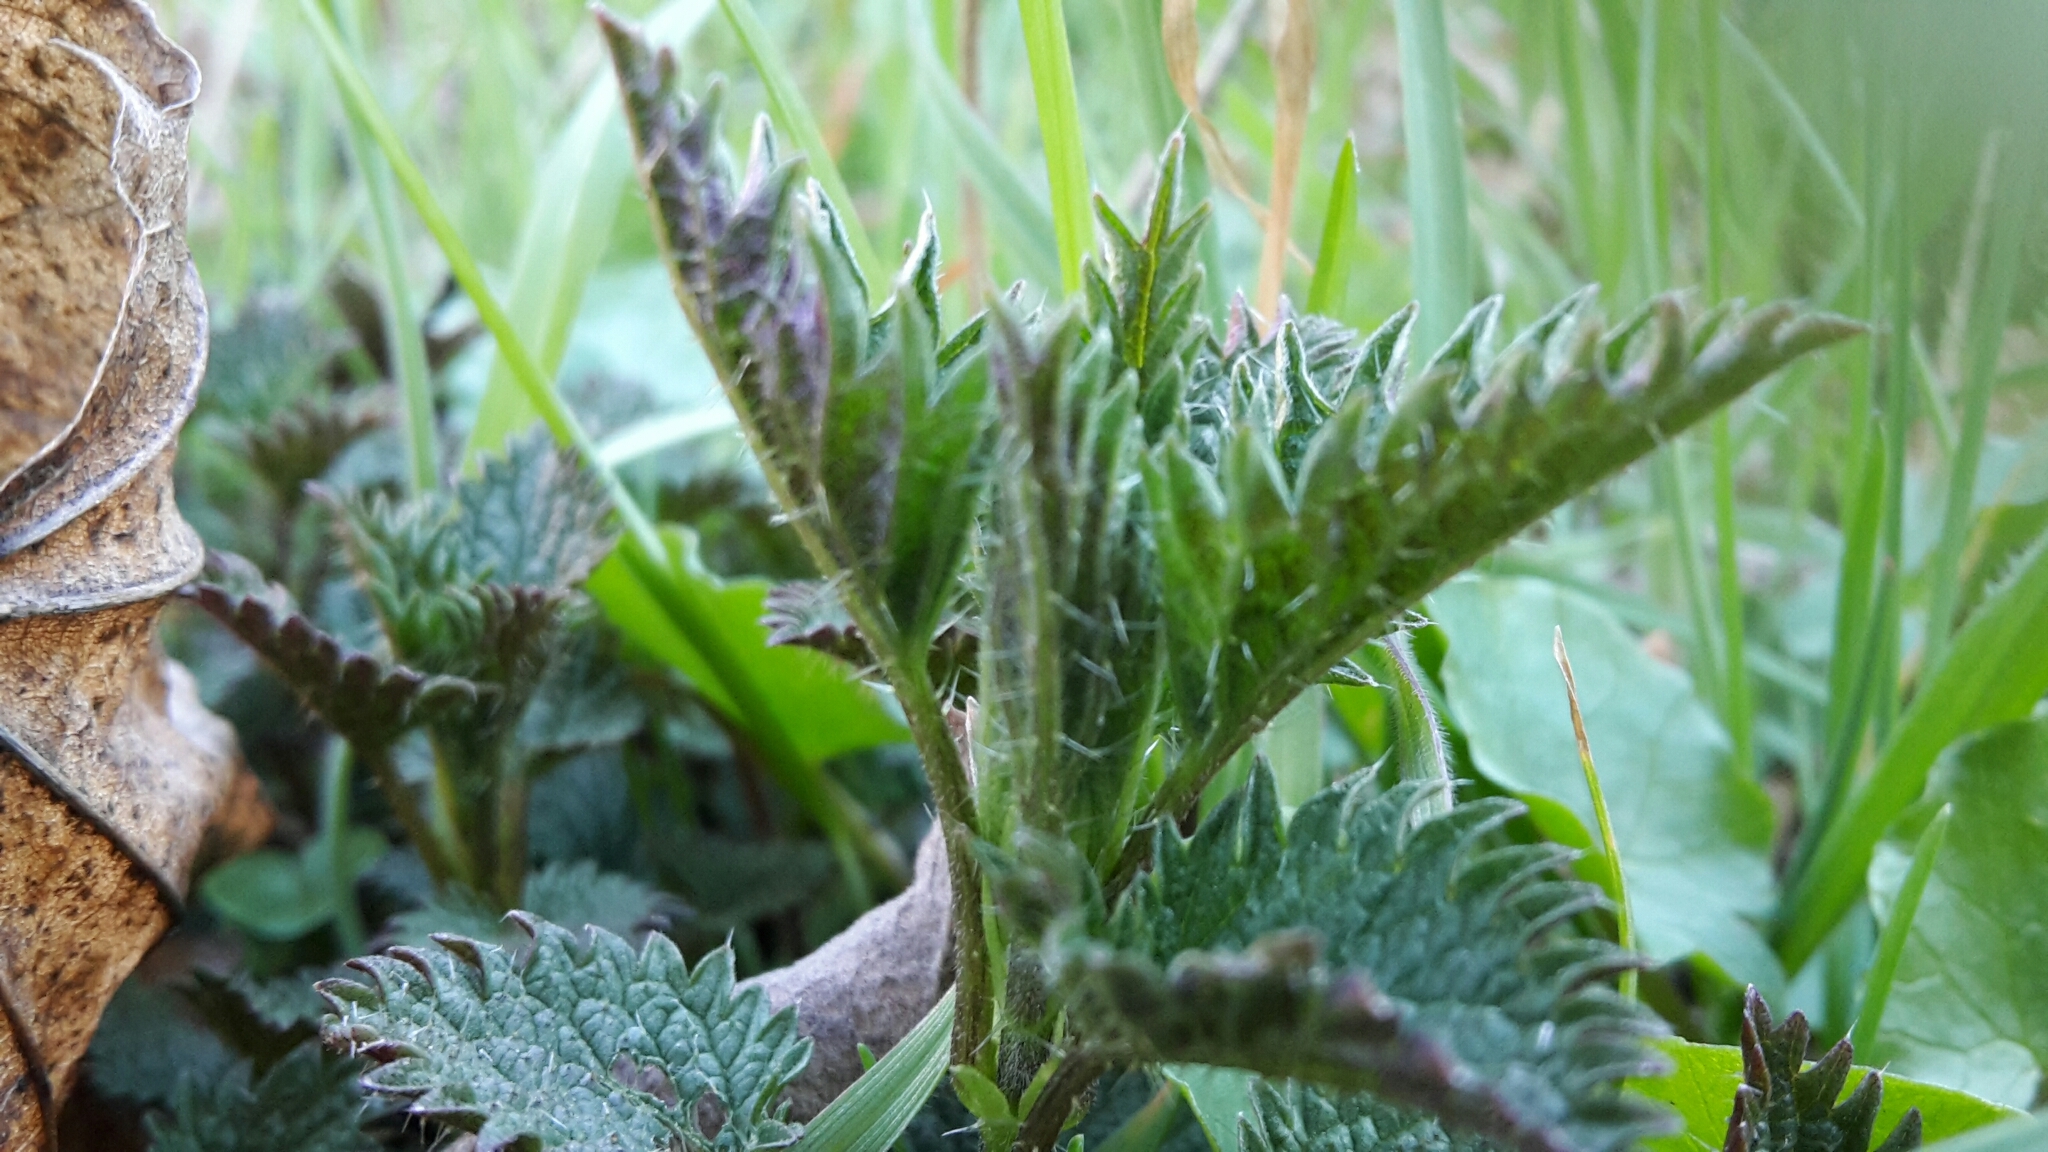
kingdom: Plantae
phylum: Tracheophyta
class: Magnoliopsida
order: Rosales
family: Urticaceae
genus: Urtica
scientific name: Urtica dioica
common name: Common nettle
